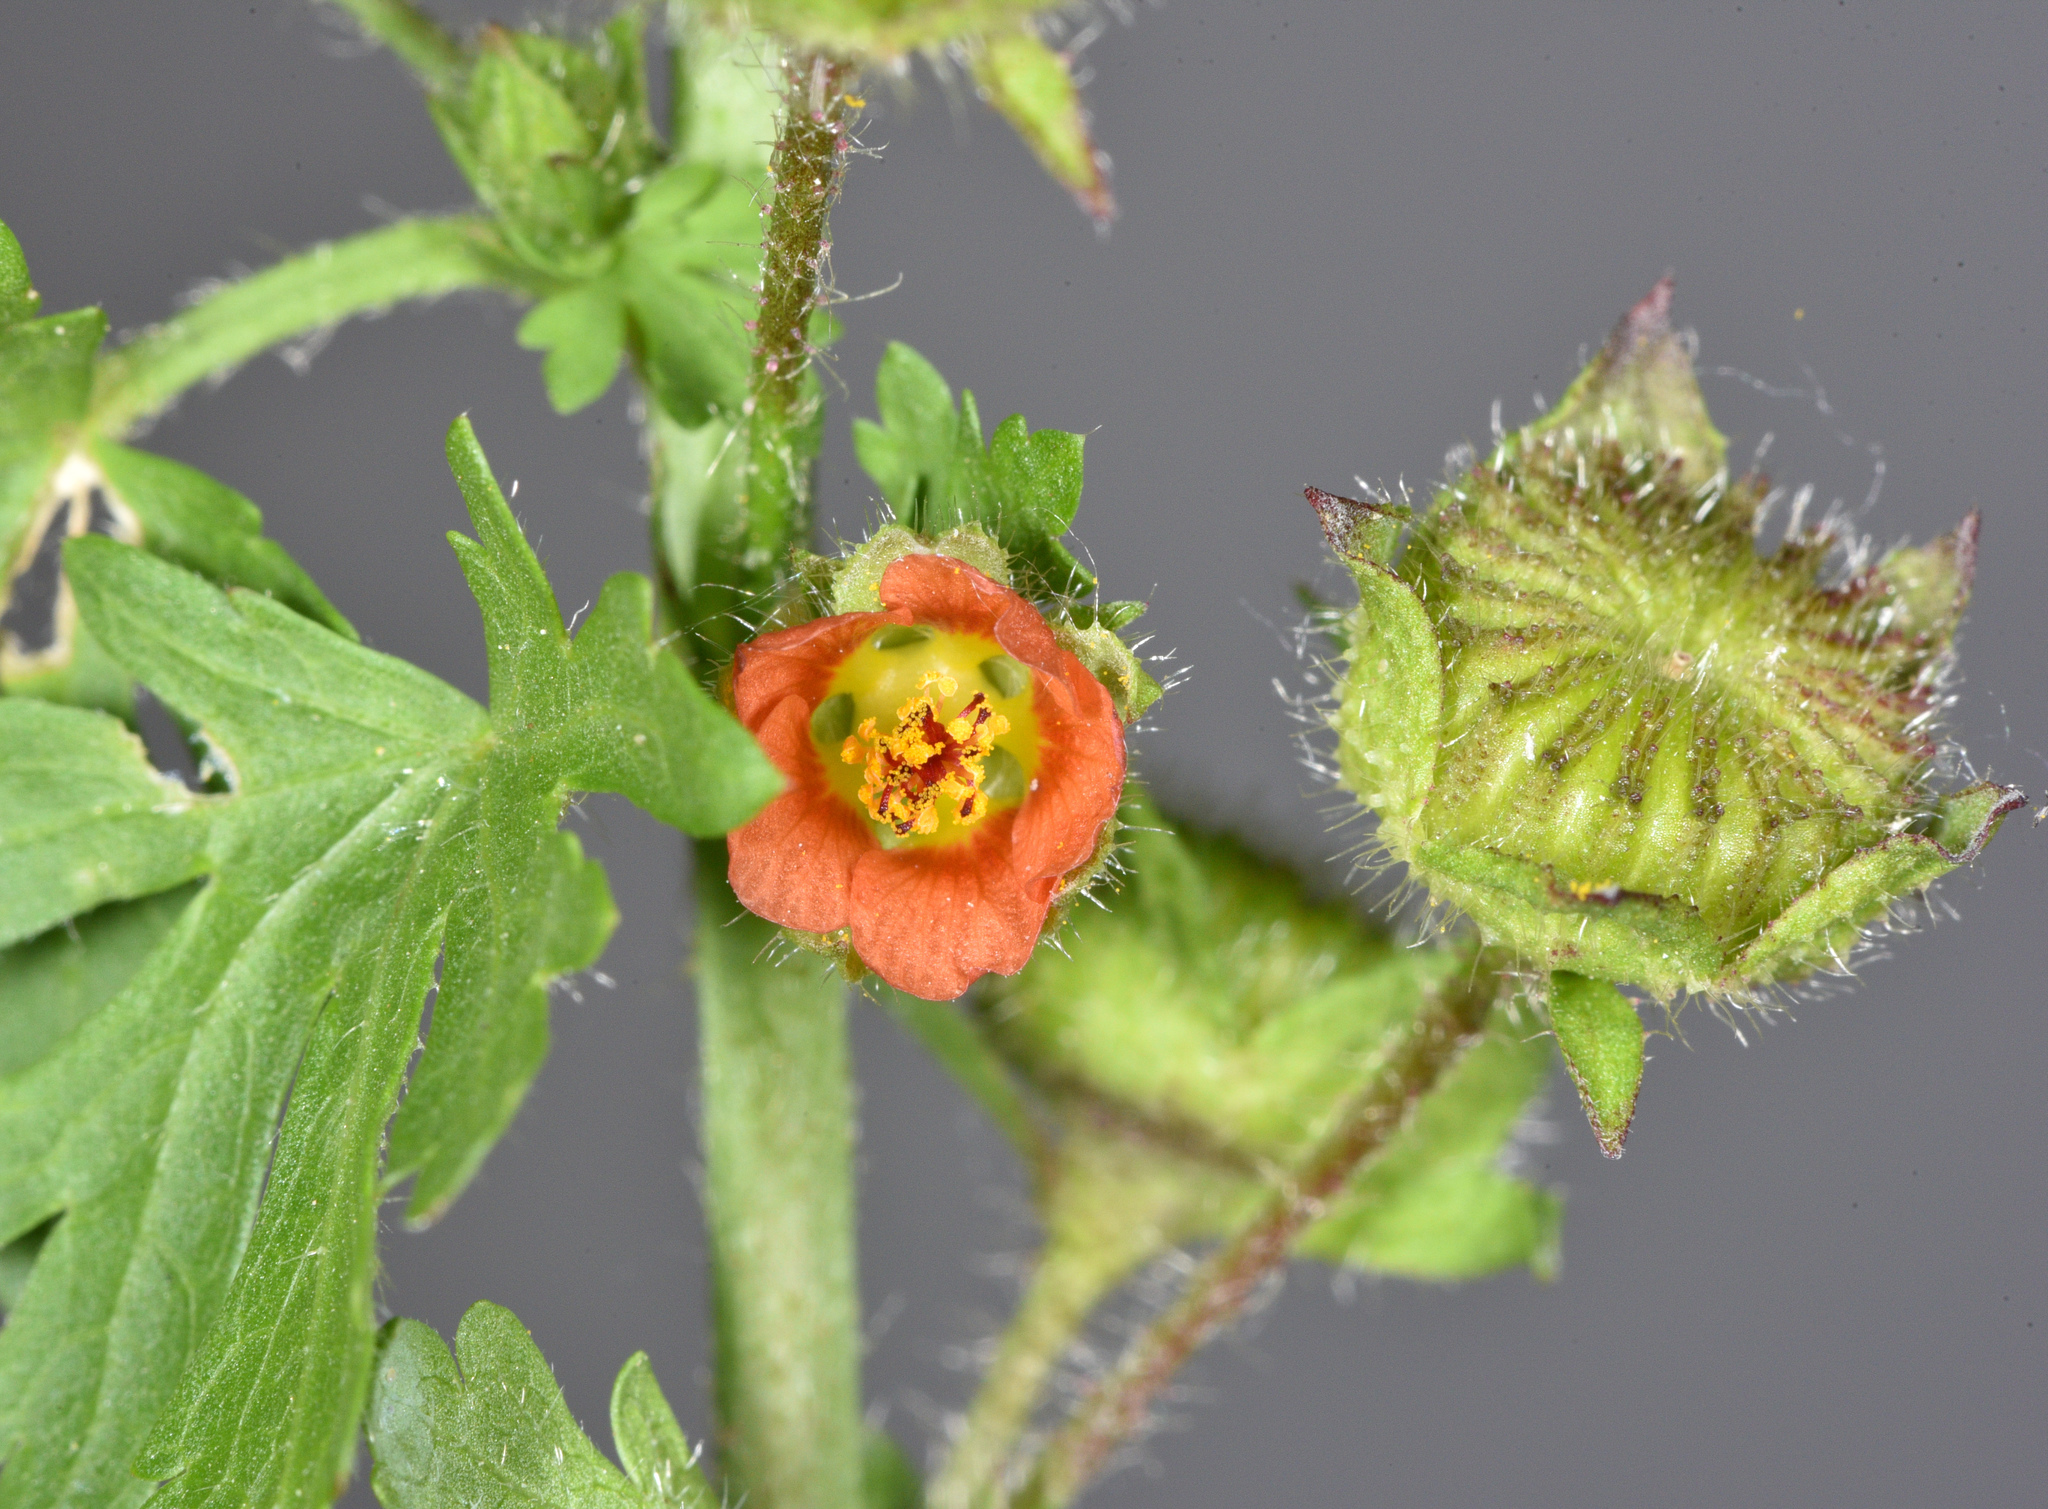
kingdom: Plantae
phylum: Tracheophyta
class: Magnoliopsida
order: Malvales
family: Malvaceae
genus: Modiola
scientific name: Modiola caroliniana
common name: Carolina bristlemallow
